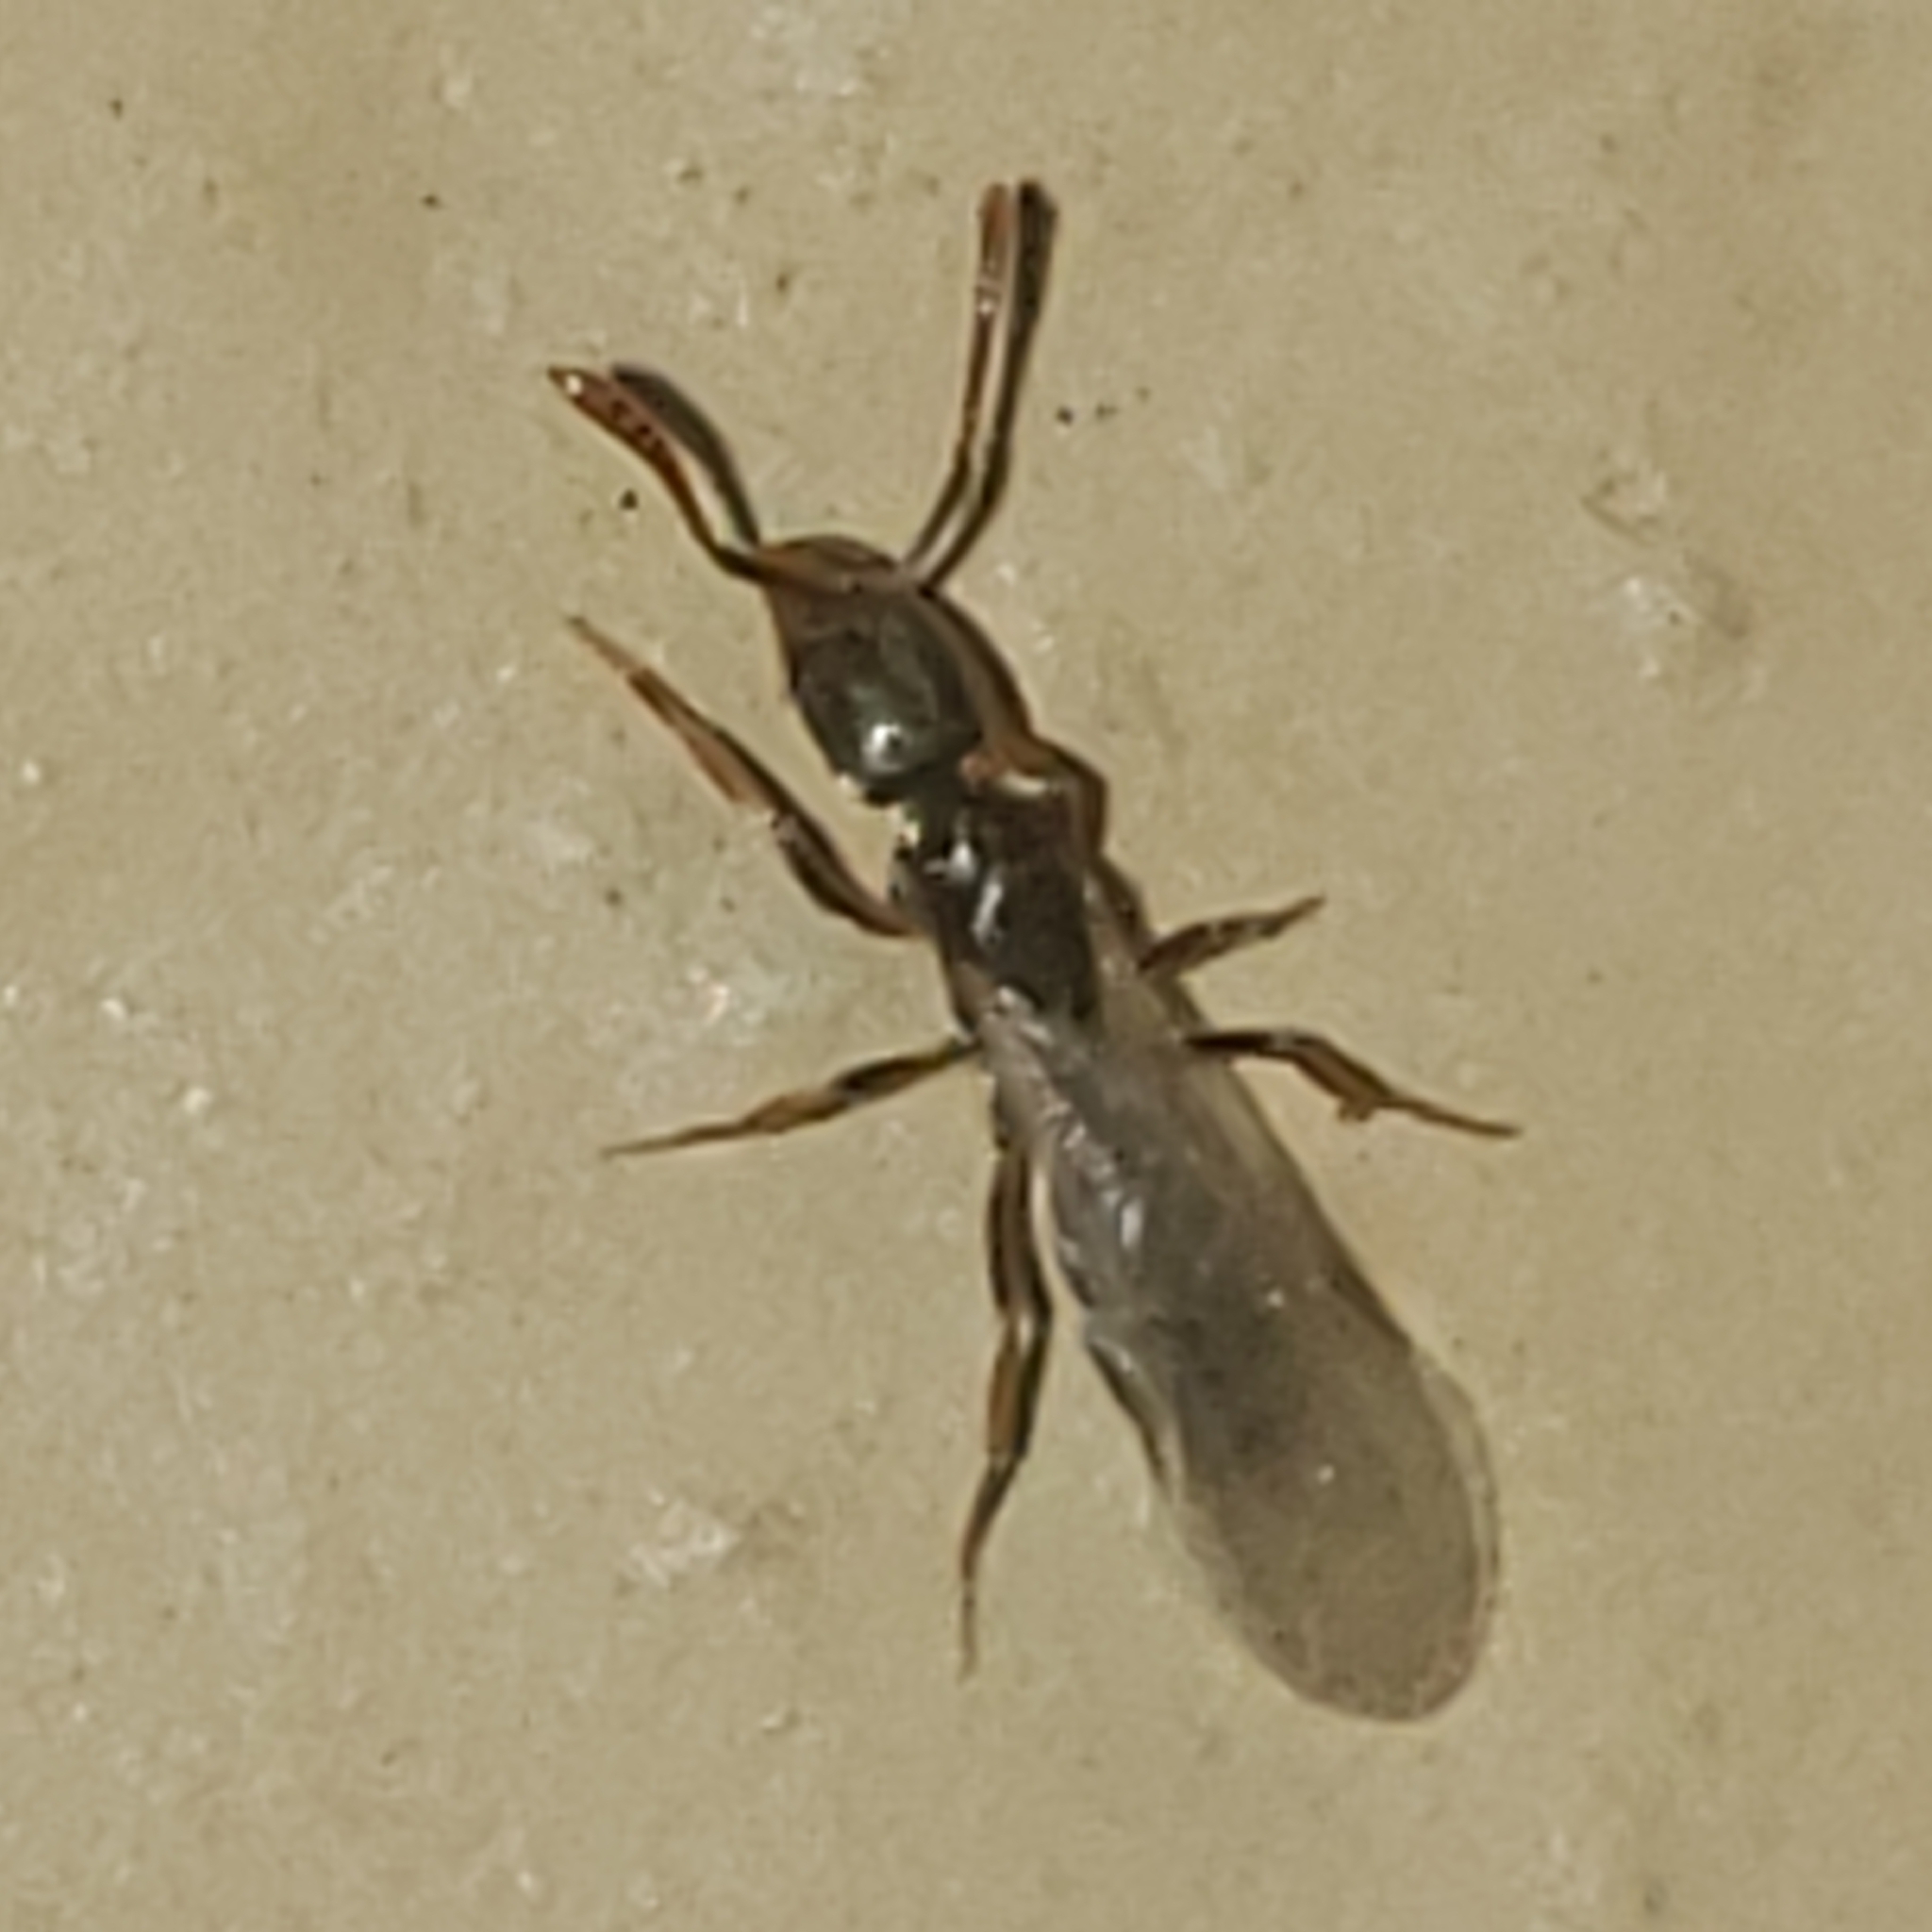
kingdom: Animalia
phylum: Arthropoda
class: Insecta
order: Hymenoptera
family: Formicidae
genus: Pachycondyla
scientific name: Pachycondyla chinensis
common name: Asian needle ant
